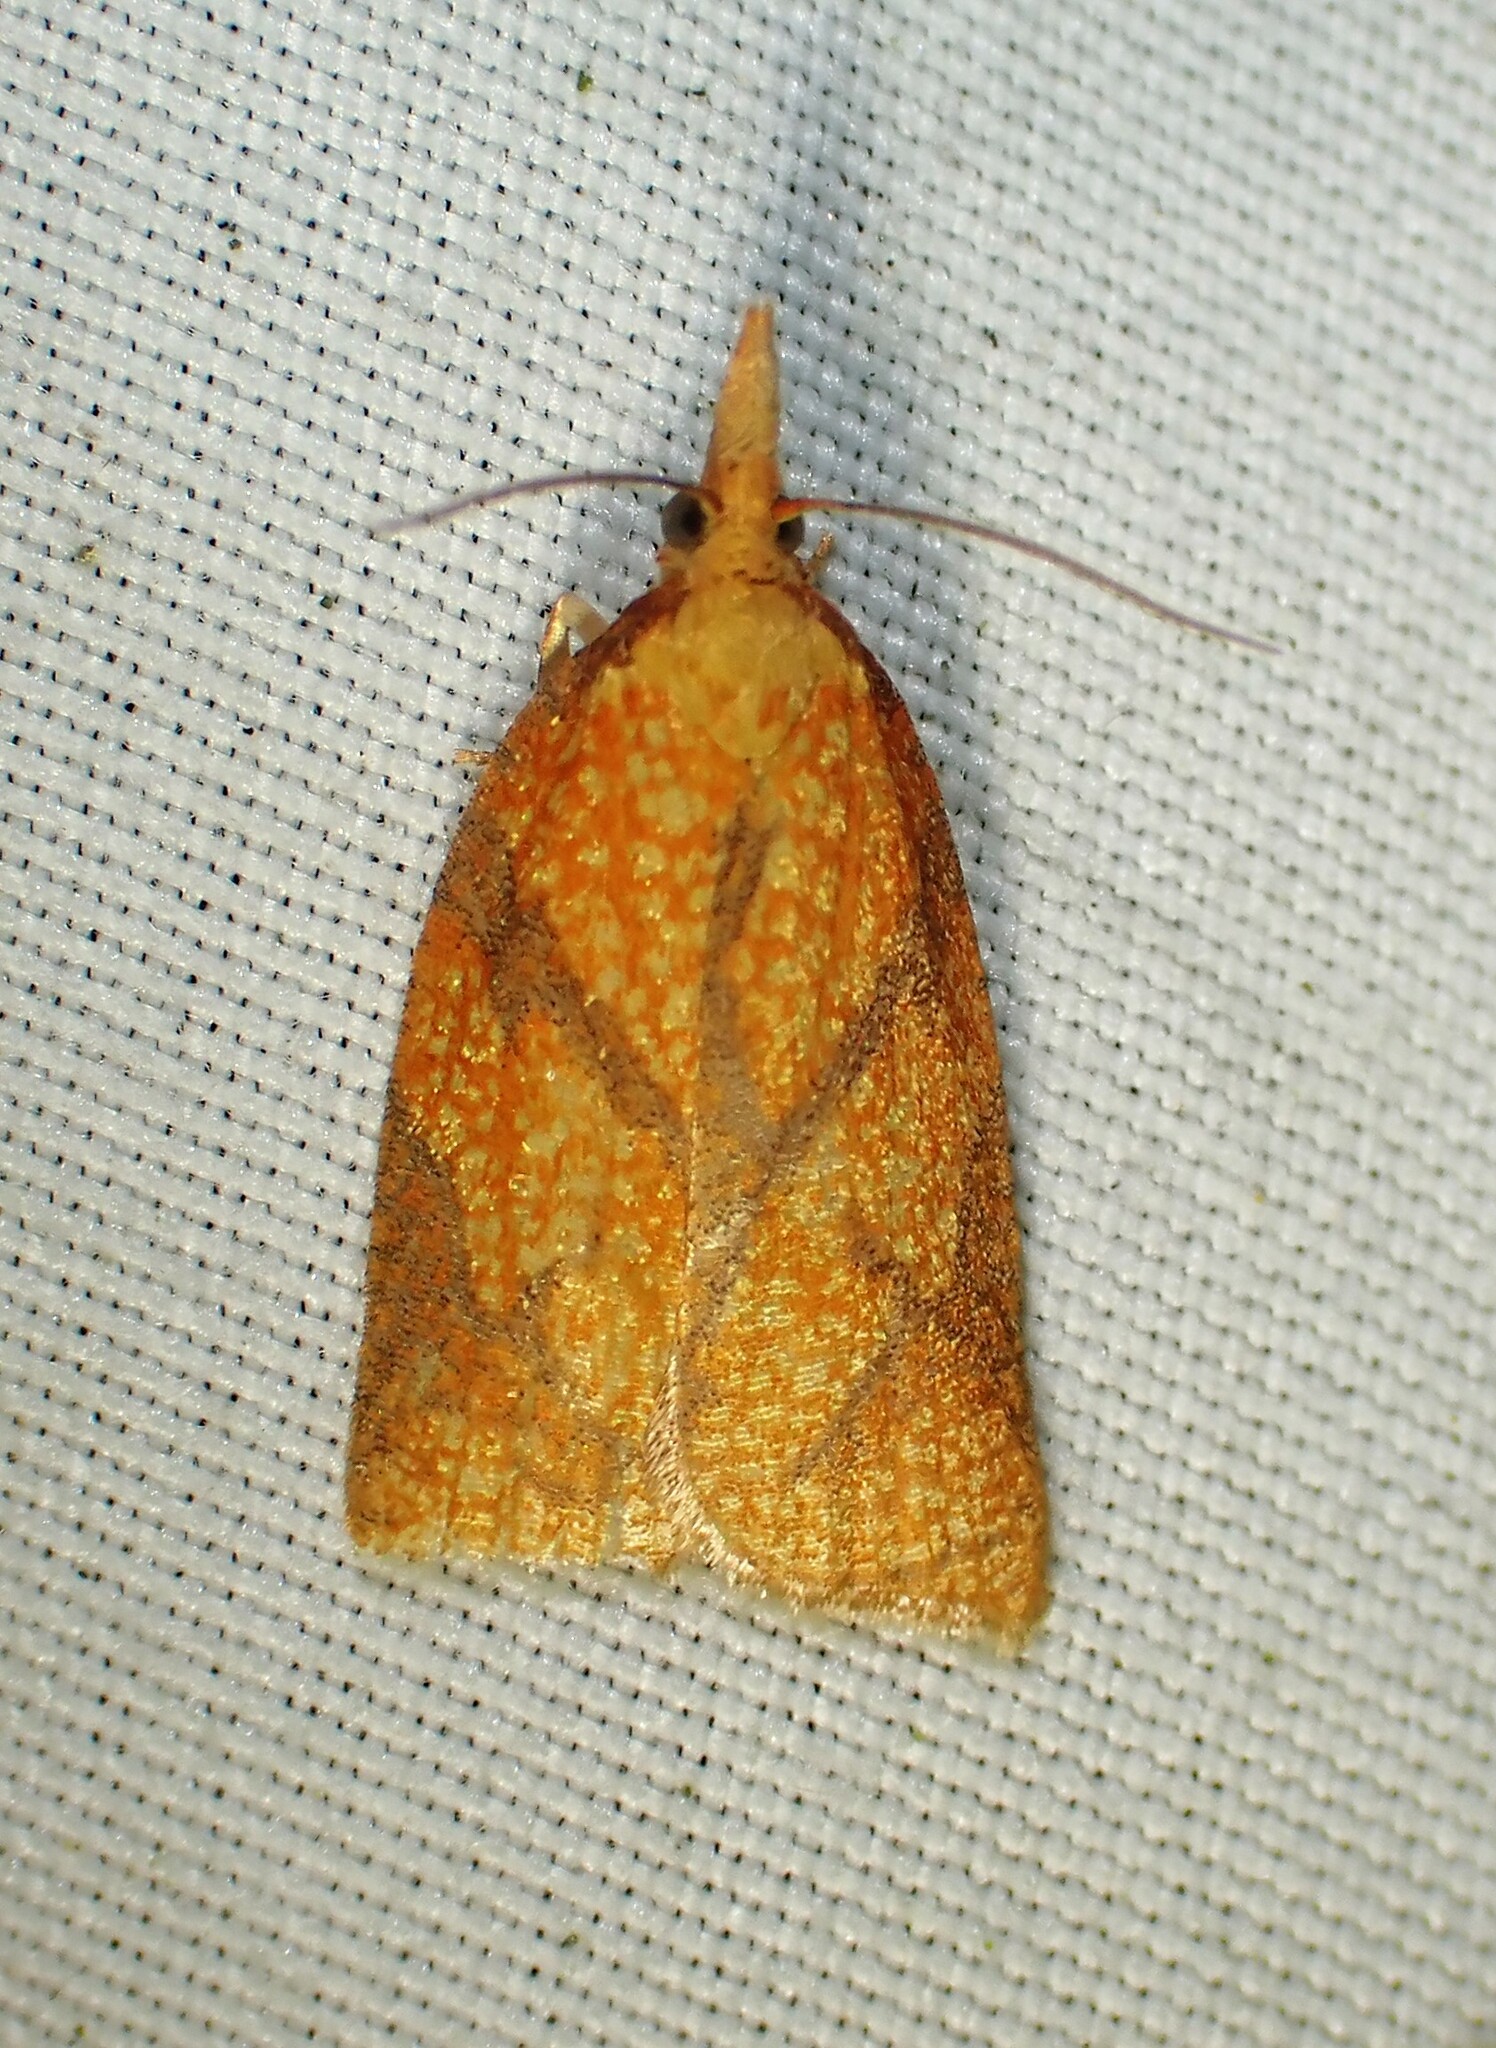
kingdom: Animalia
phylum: Arthropoda
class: Insecta
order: Lepidoptera
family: Tortricidae
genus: Cenopis
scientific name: Cenopis reticulatana
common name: Reticulated fruitworm moth
